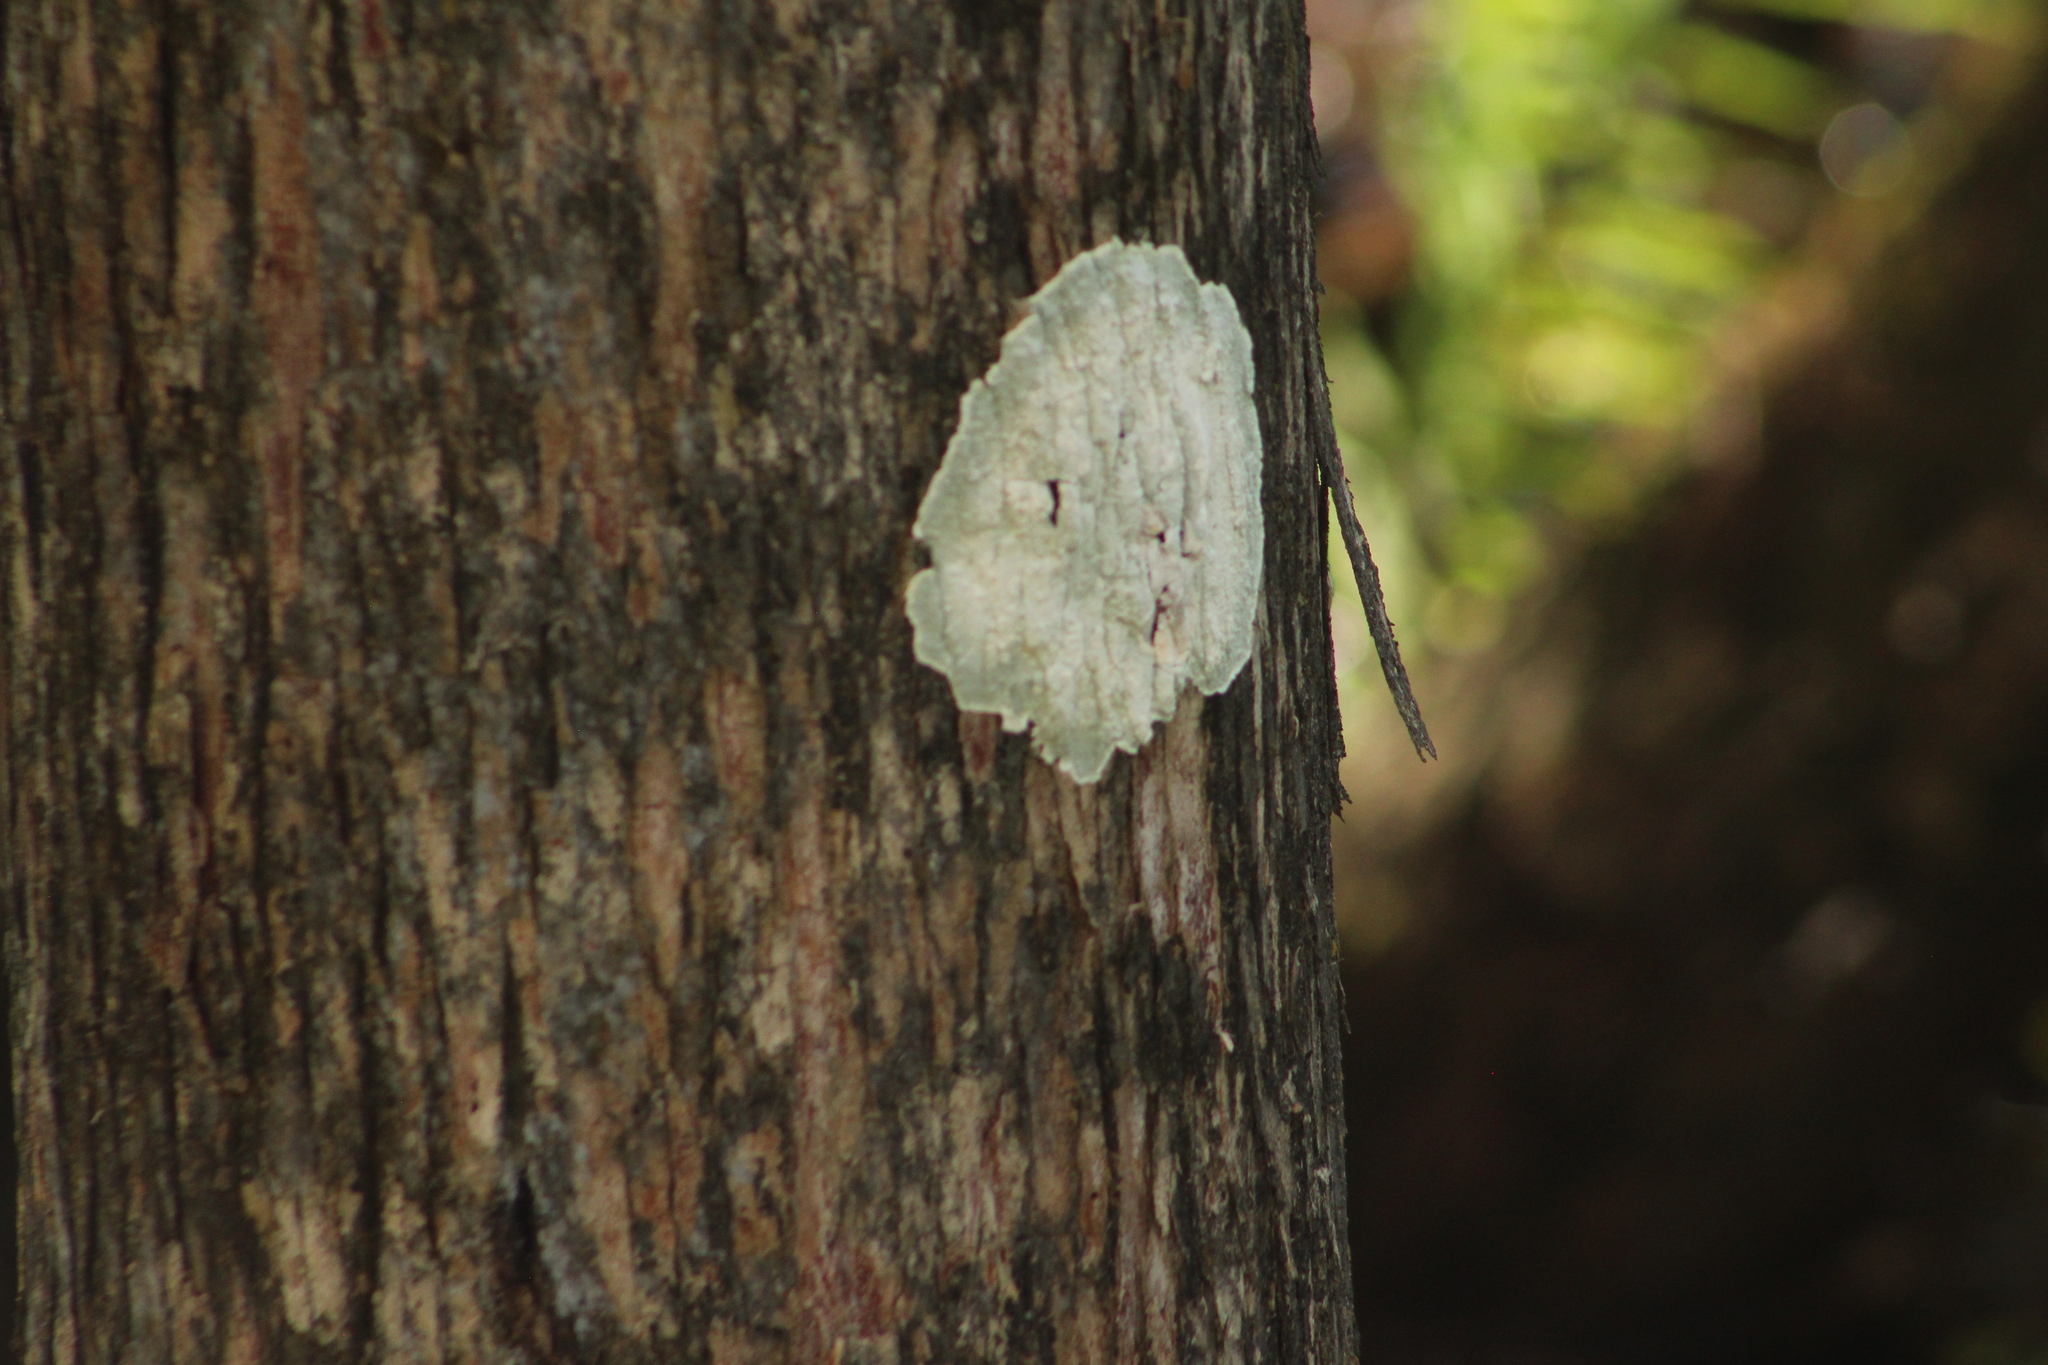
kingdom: Fungi
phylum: Ascomycota
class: Arthoniomycetes
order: Arthoniales
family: Arthoniaceae
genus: Cryptothecia
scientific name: Cryptothecia striata
